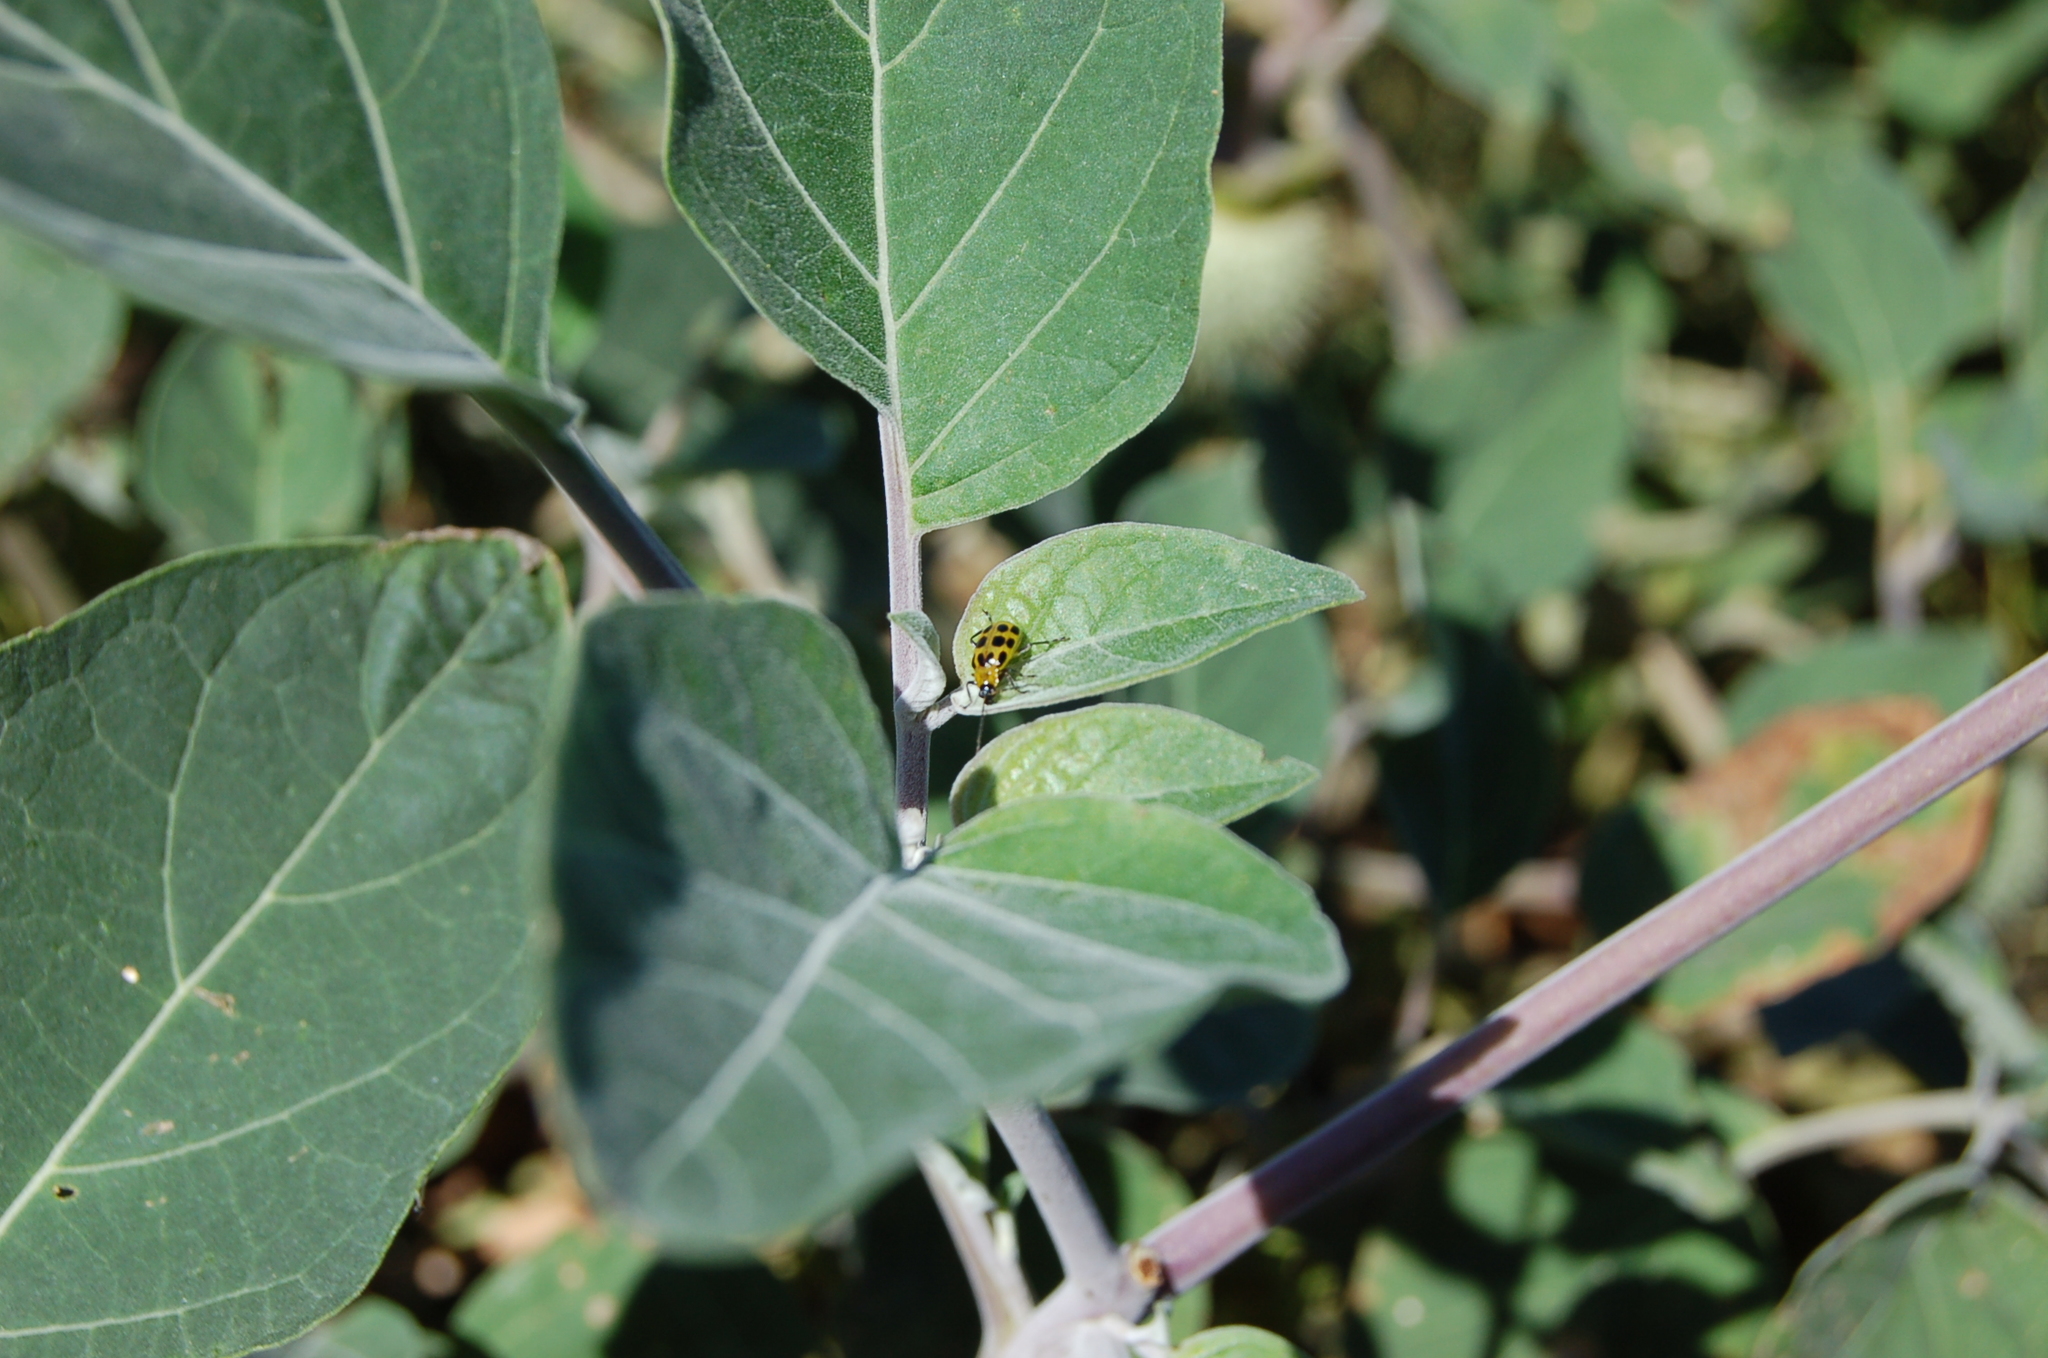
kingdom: Animalia
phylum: Arthropoda
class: Insecta
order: Coleoptera
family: Chrysomelidae
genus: Diabrotica
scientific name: Diabrotica undecimpunctata
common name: Spotted cucumber beetle
